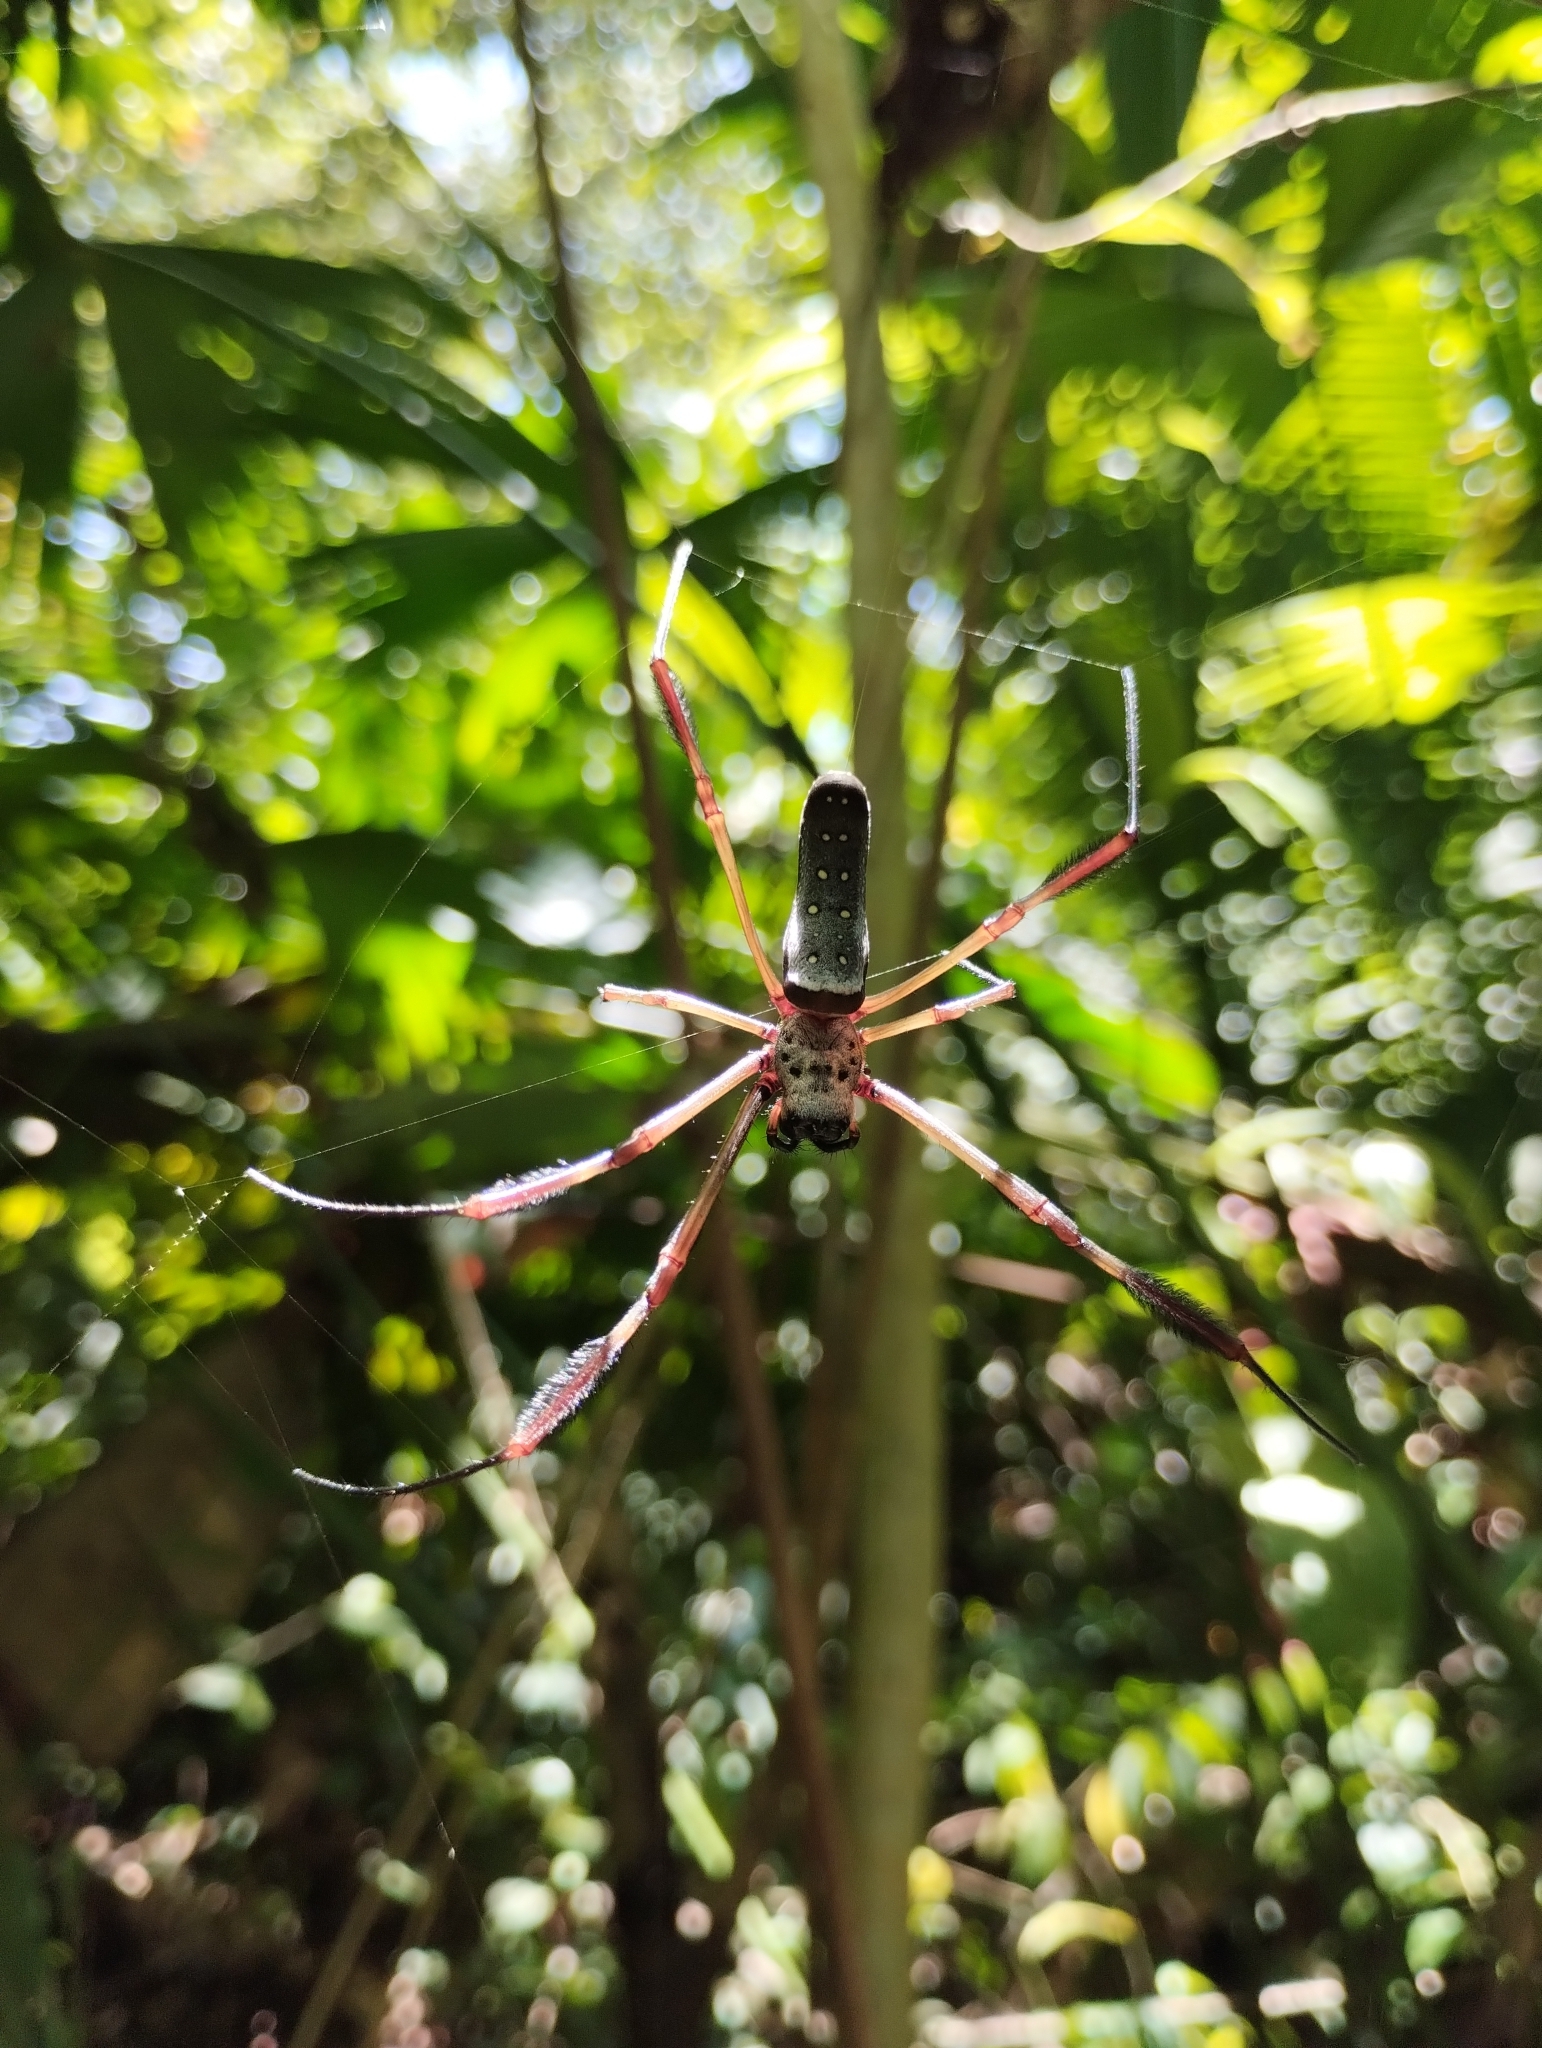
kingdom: Animalia
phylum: Arthropoda
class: Arachnida
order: Araneae
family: Araneidae
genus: Trichonephila
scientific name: Trichonephila clavipes
